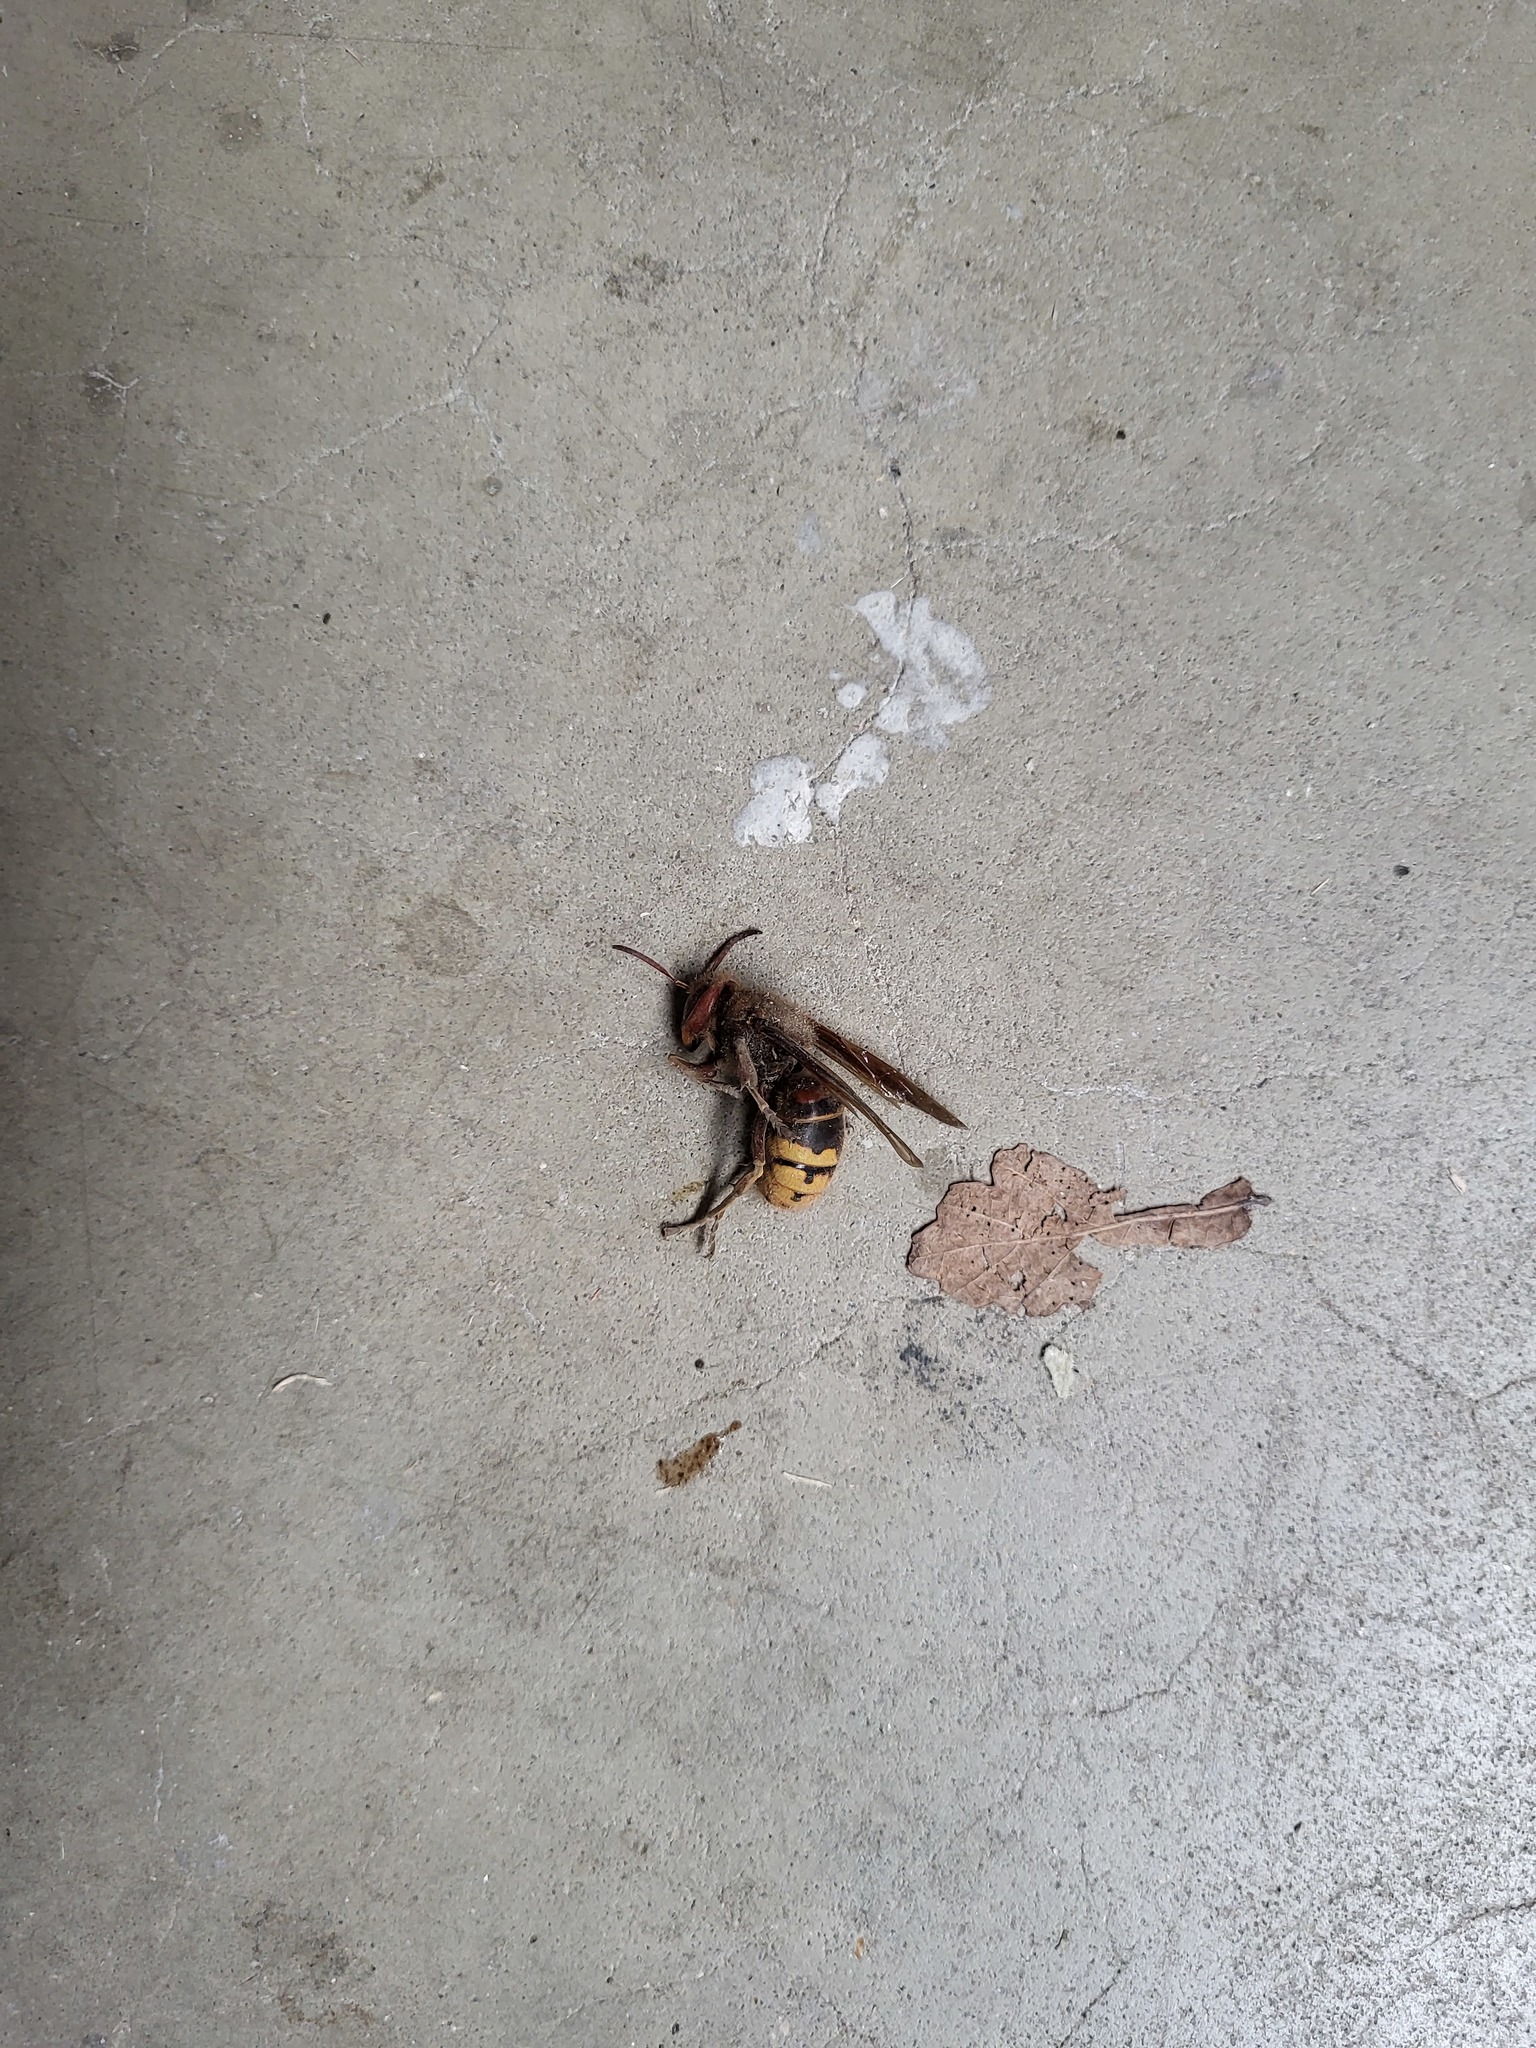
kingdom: Animalia
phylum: Arthropoda
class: Insecta
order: Hymenoptera
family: Vespidae
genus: Vespa
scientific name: Vespa crabro
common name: Hornet
